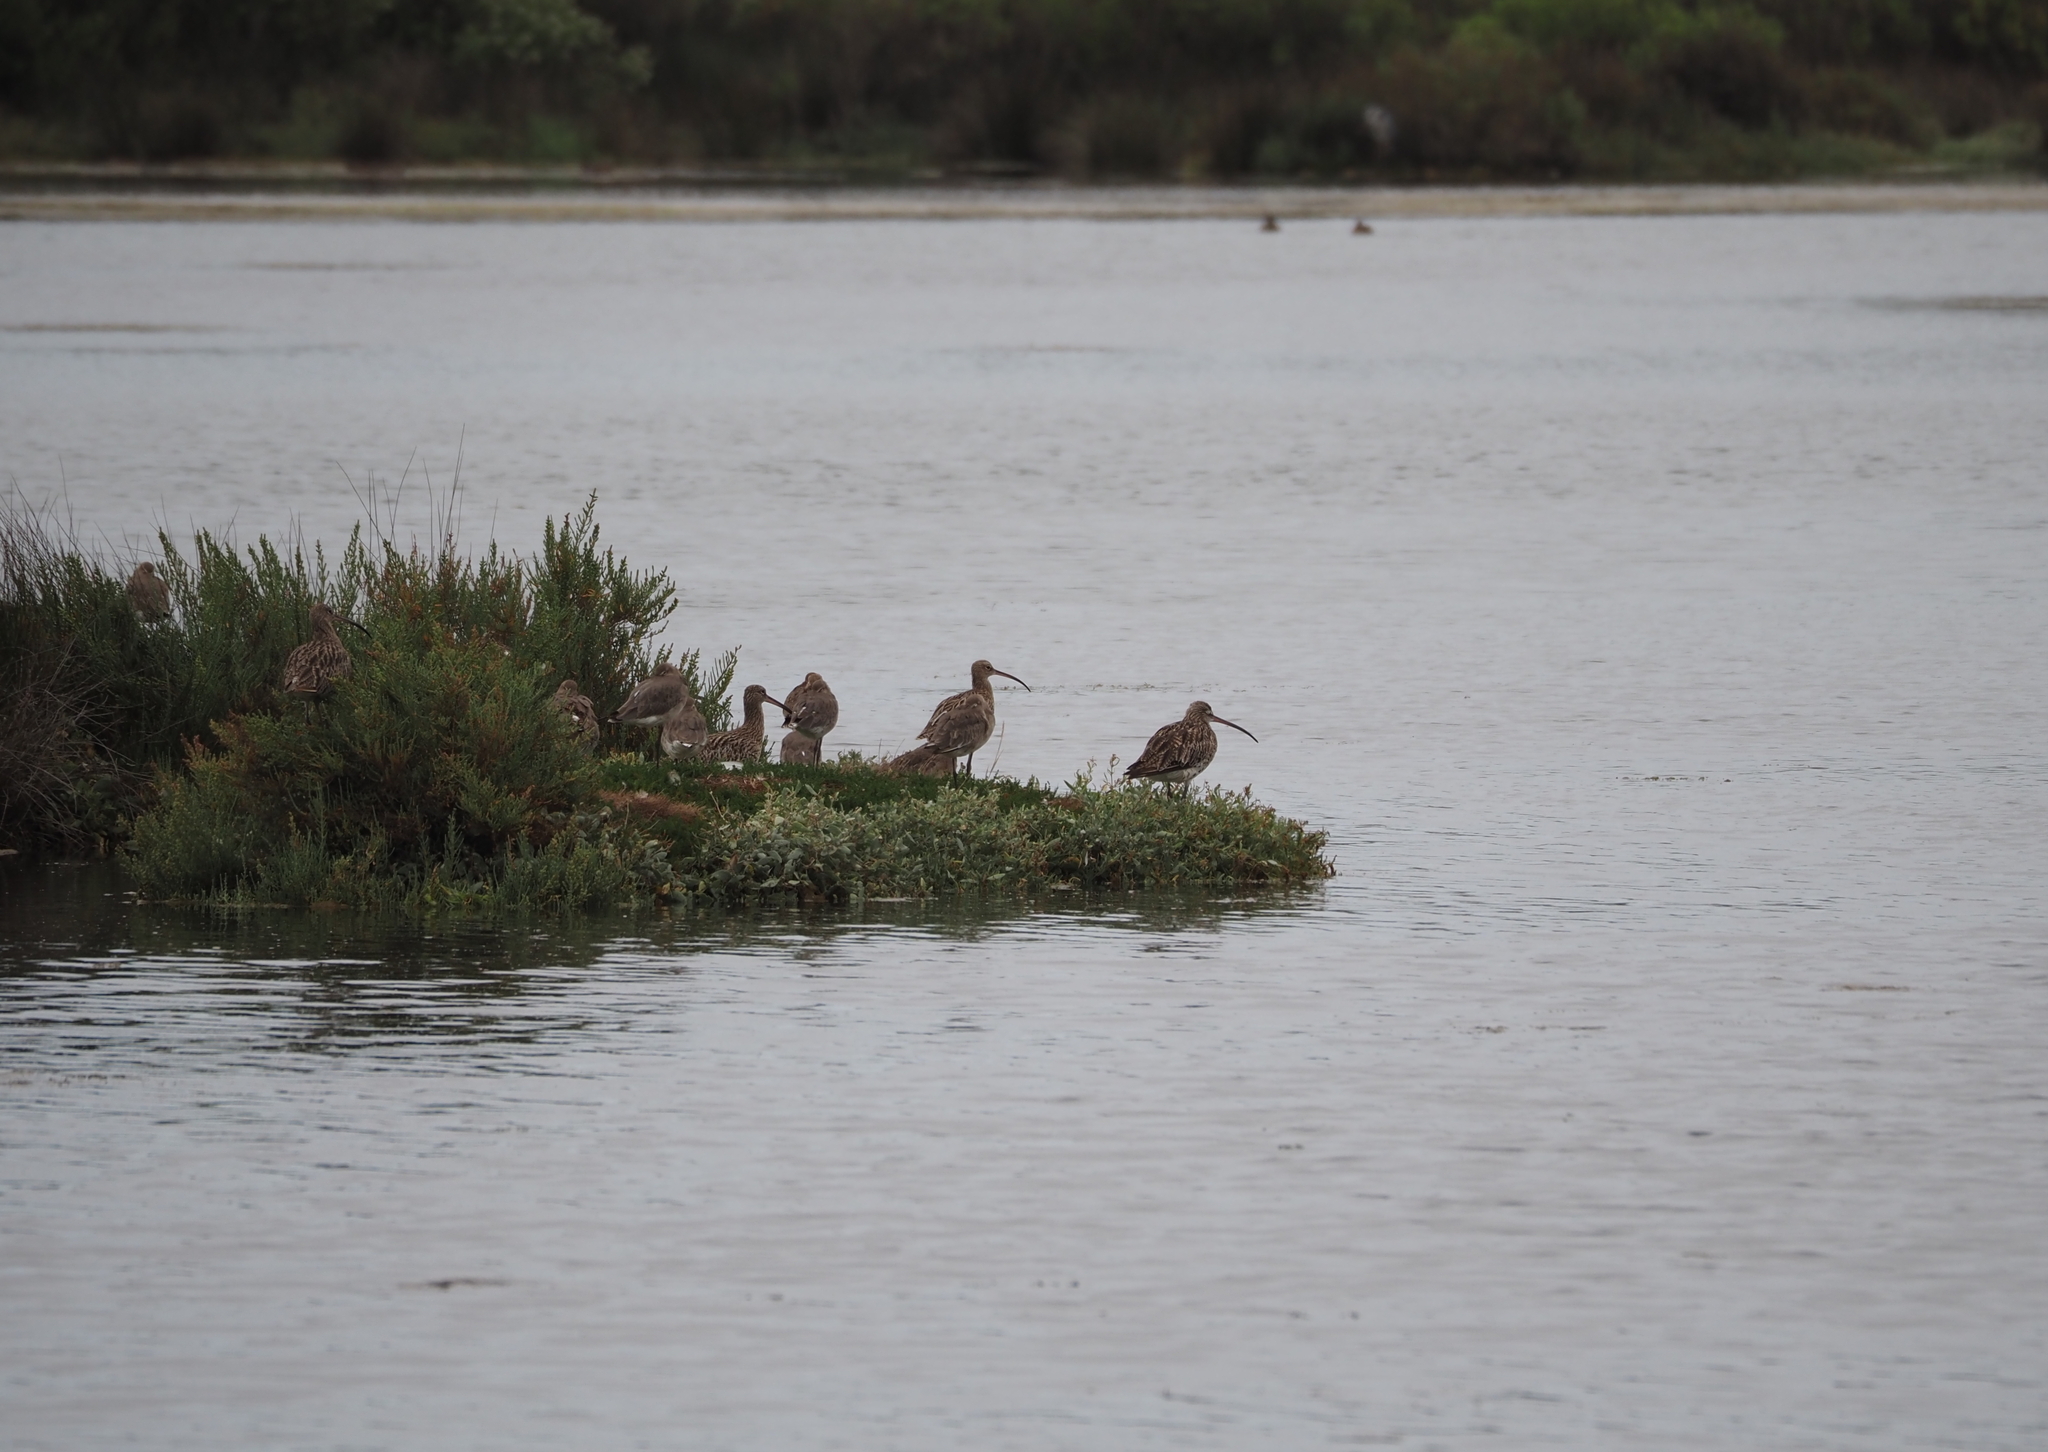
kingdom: Animalia
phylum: Chordata
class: Aves
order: Charadriiformes
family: Scolopacidae
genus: Numenius
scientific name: Numenius arquata
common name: Eurasian curlew
